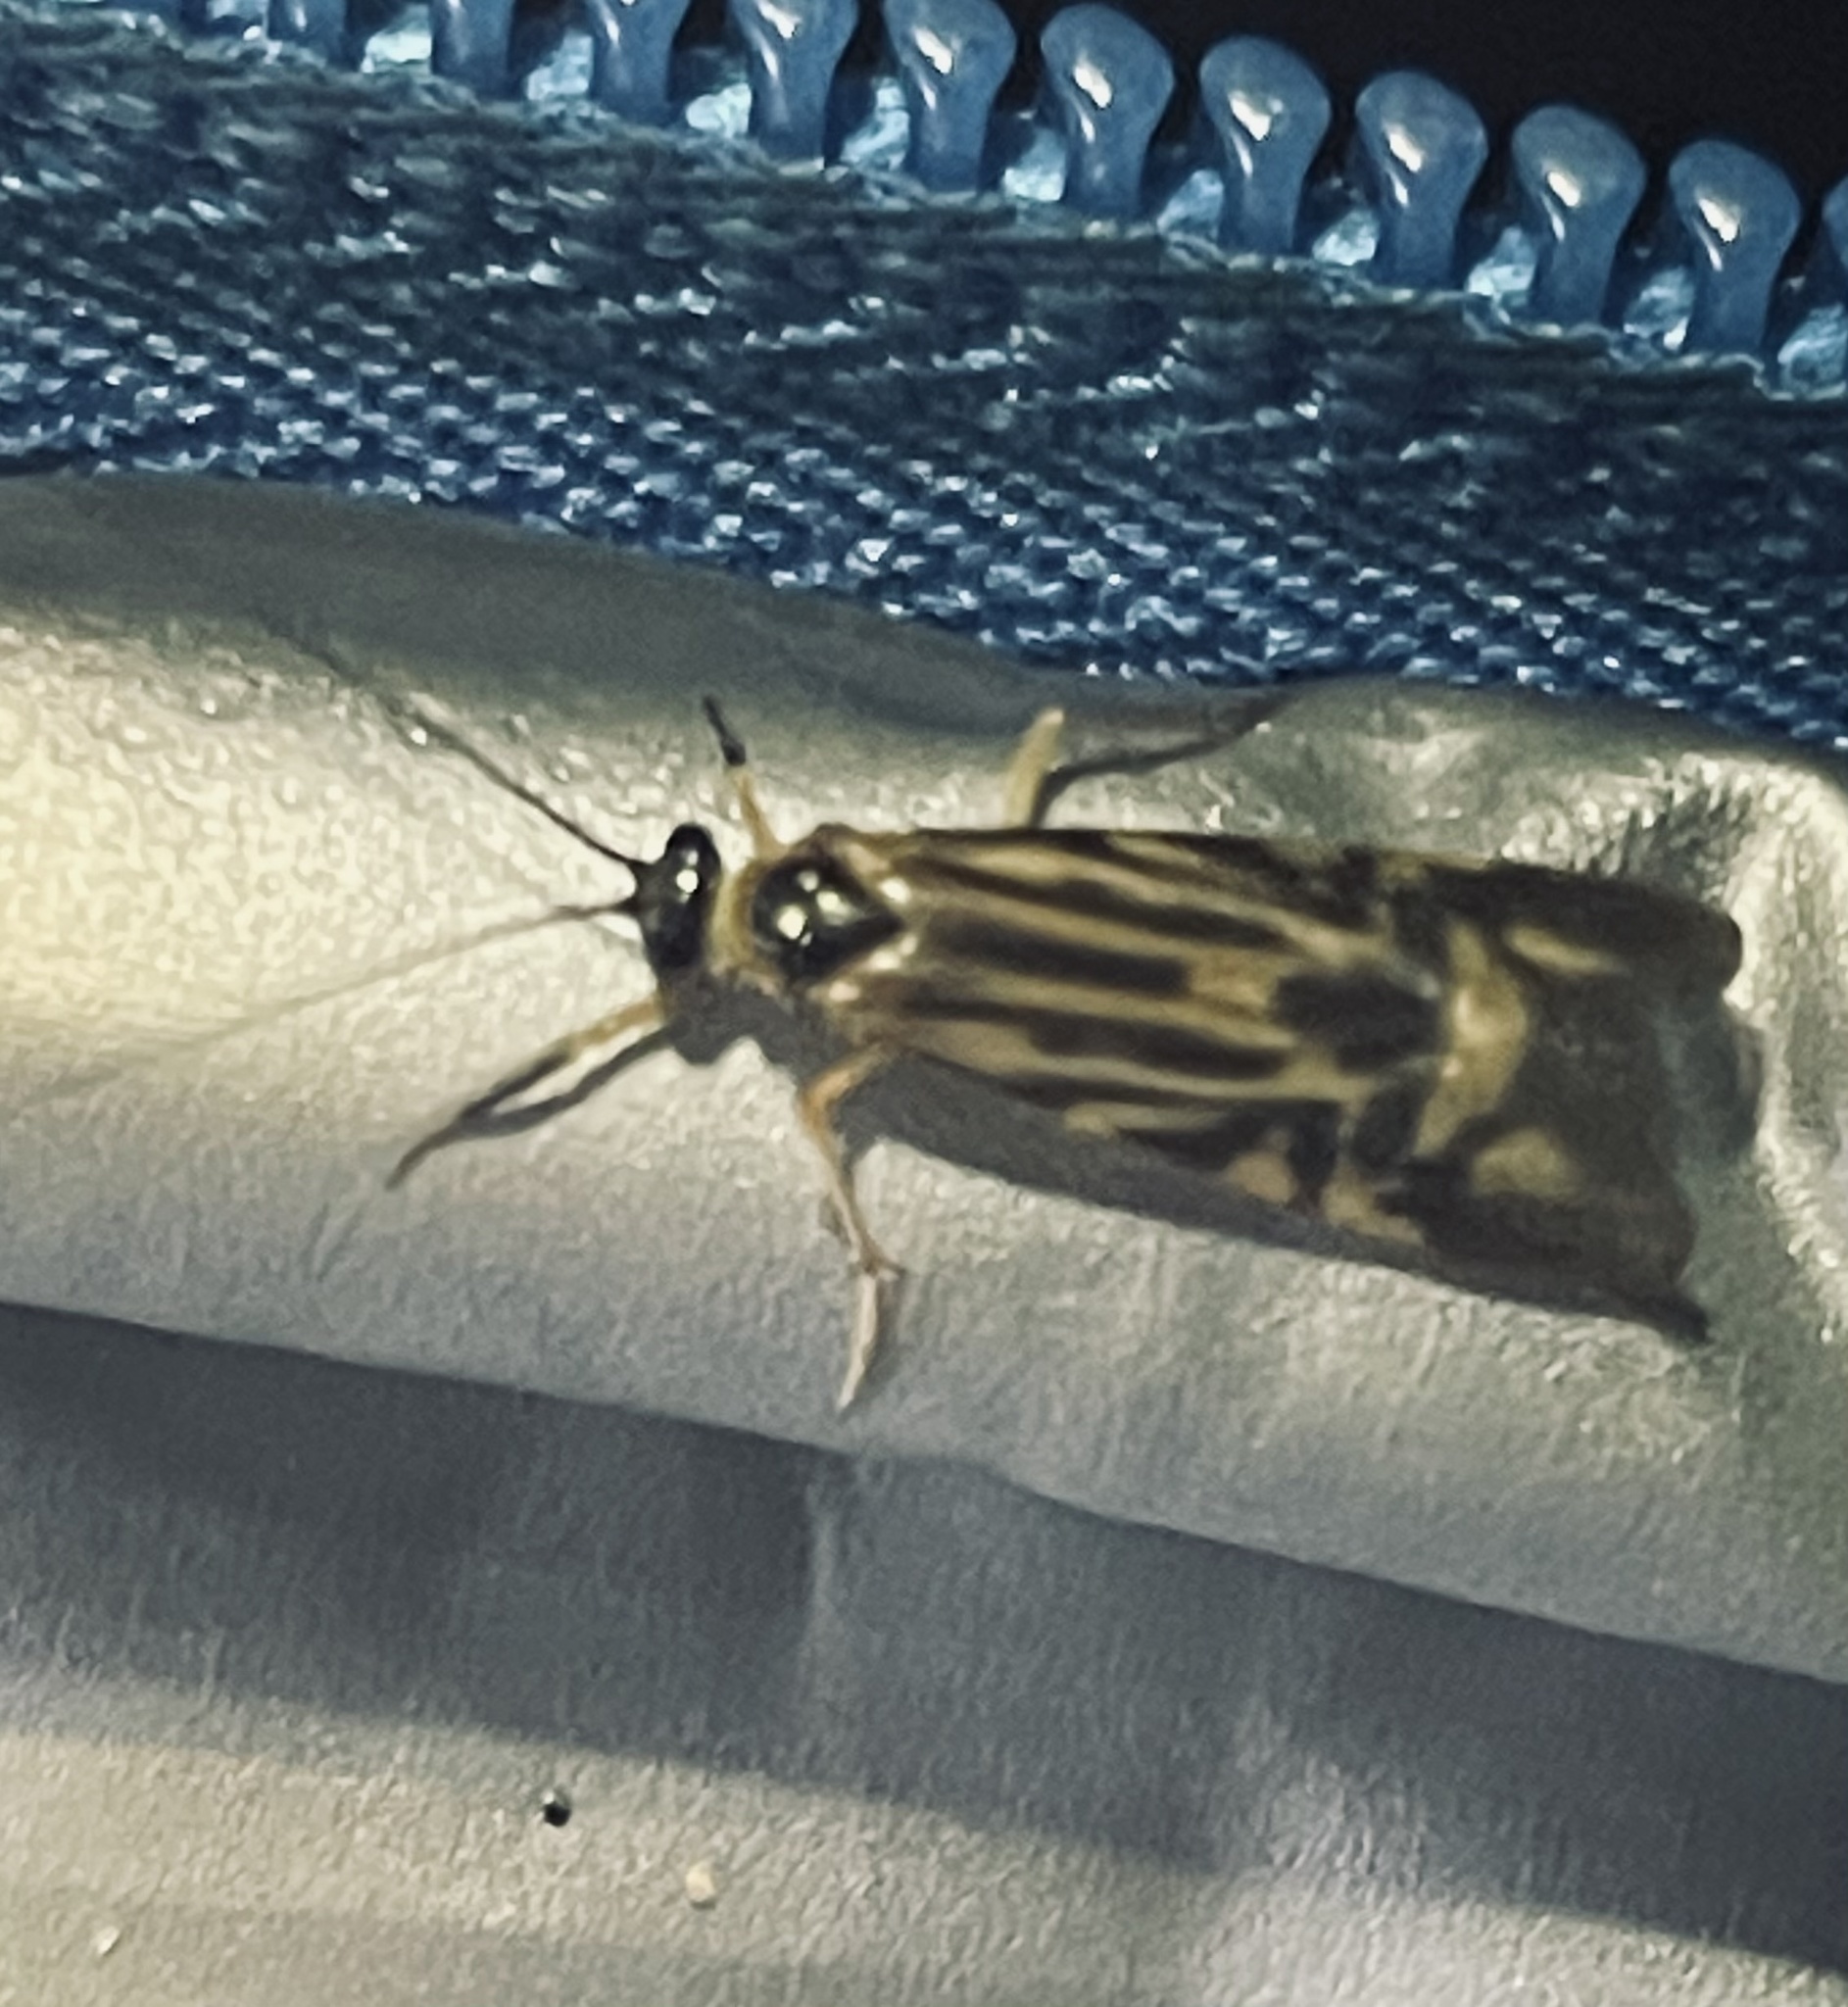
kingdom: Animalia
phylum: Arthropoda
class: Insecta
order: Trichoptera
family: Hydropsychidae
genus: Macrostemum
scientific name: Macrostemum zebratum
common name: Zebra caddisfly
